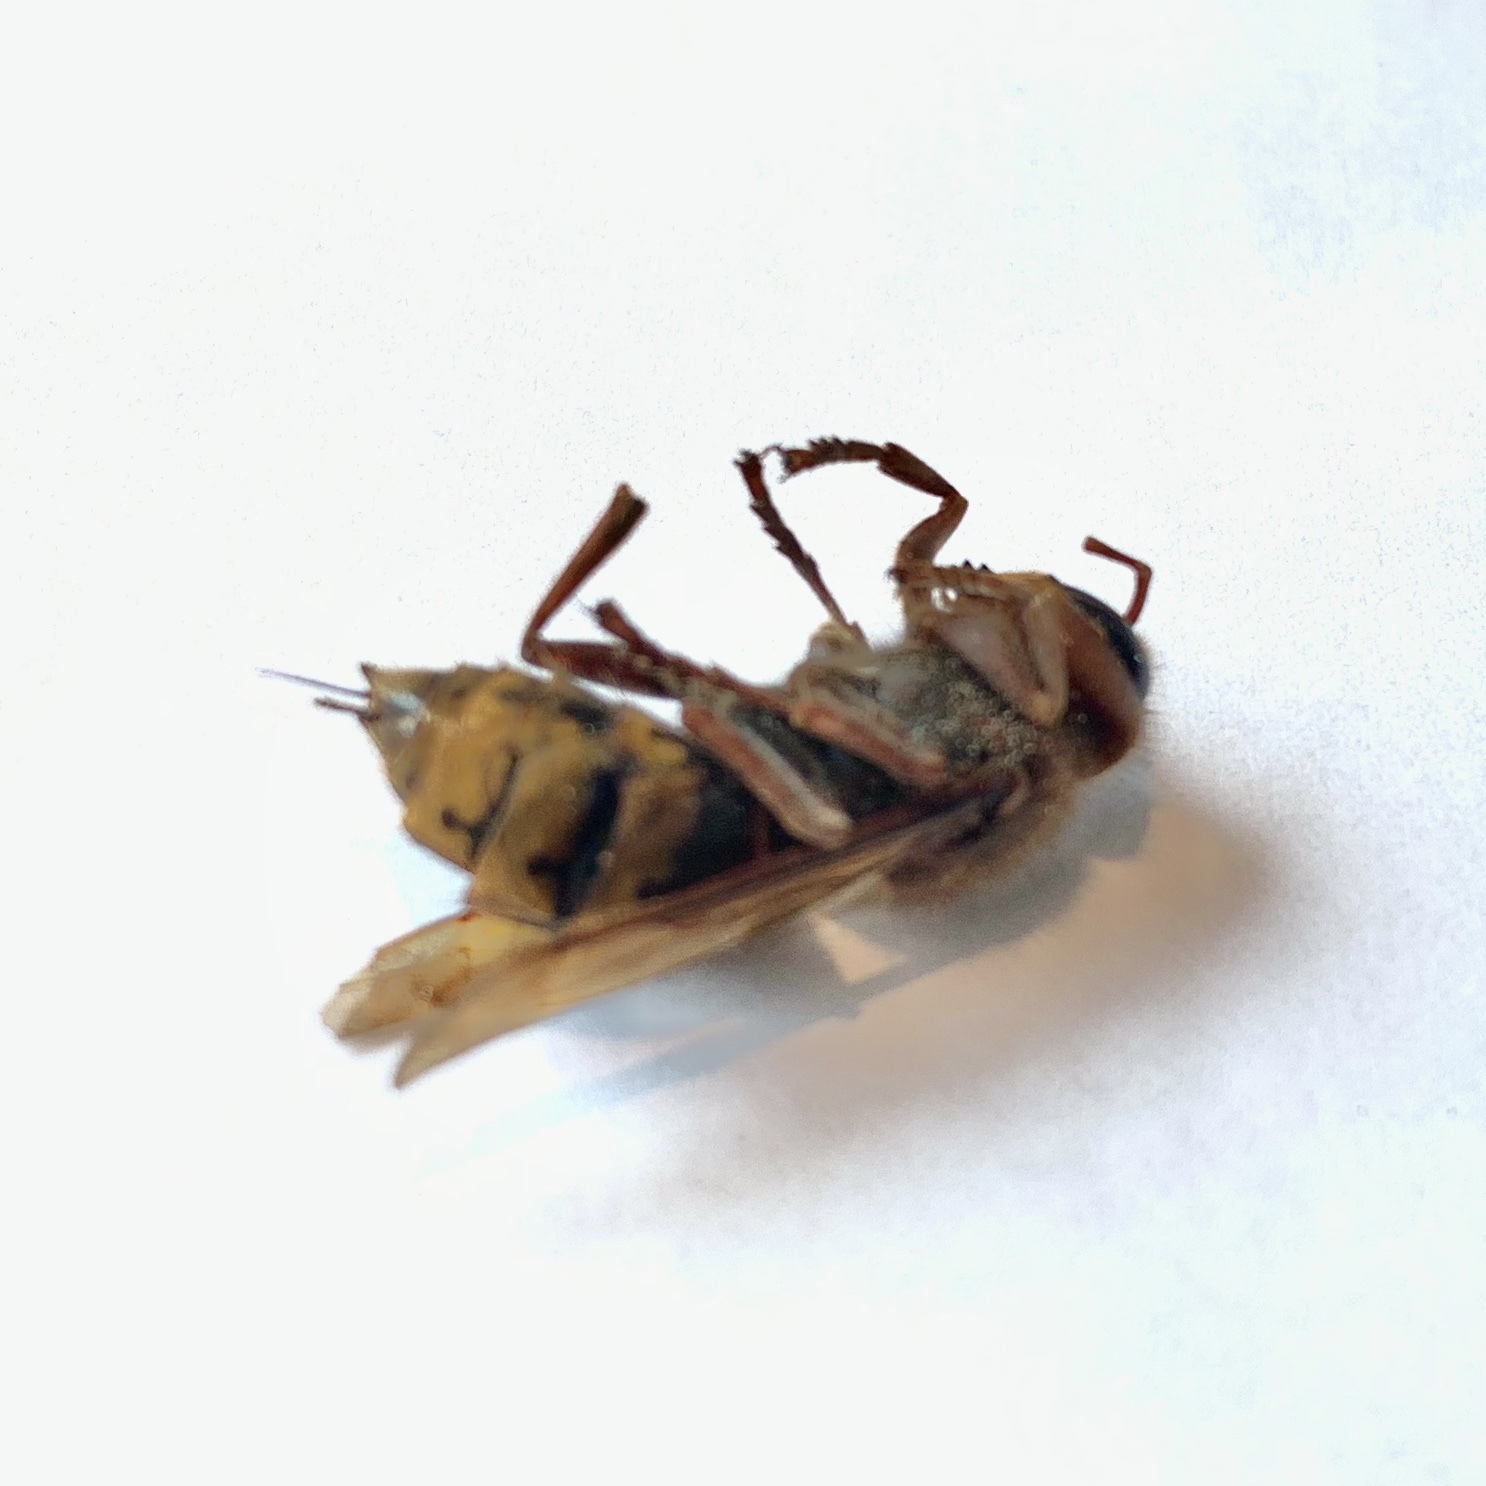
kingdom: Animalia
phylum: Arthropoda
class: Insecta
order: Hymenoptera
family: Vespidae
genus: Vespa
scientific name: Vespa crabro
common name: Hornet
